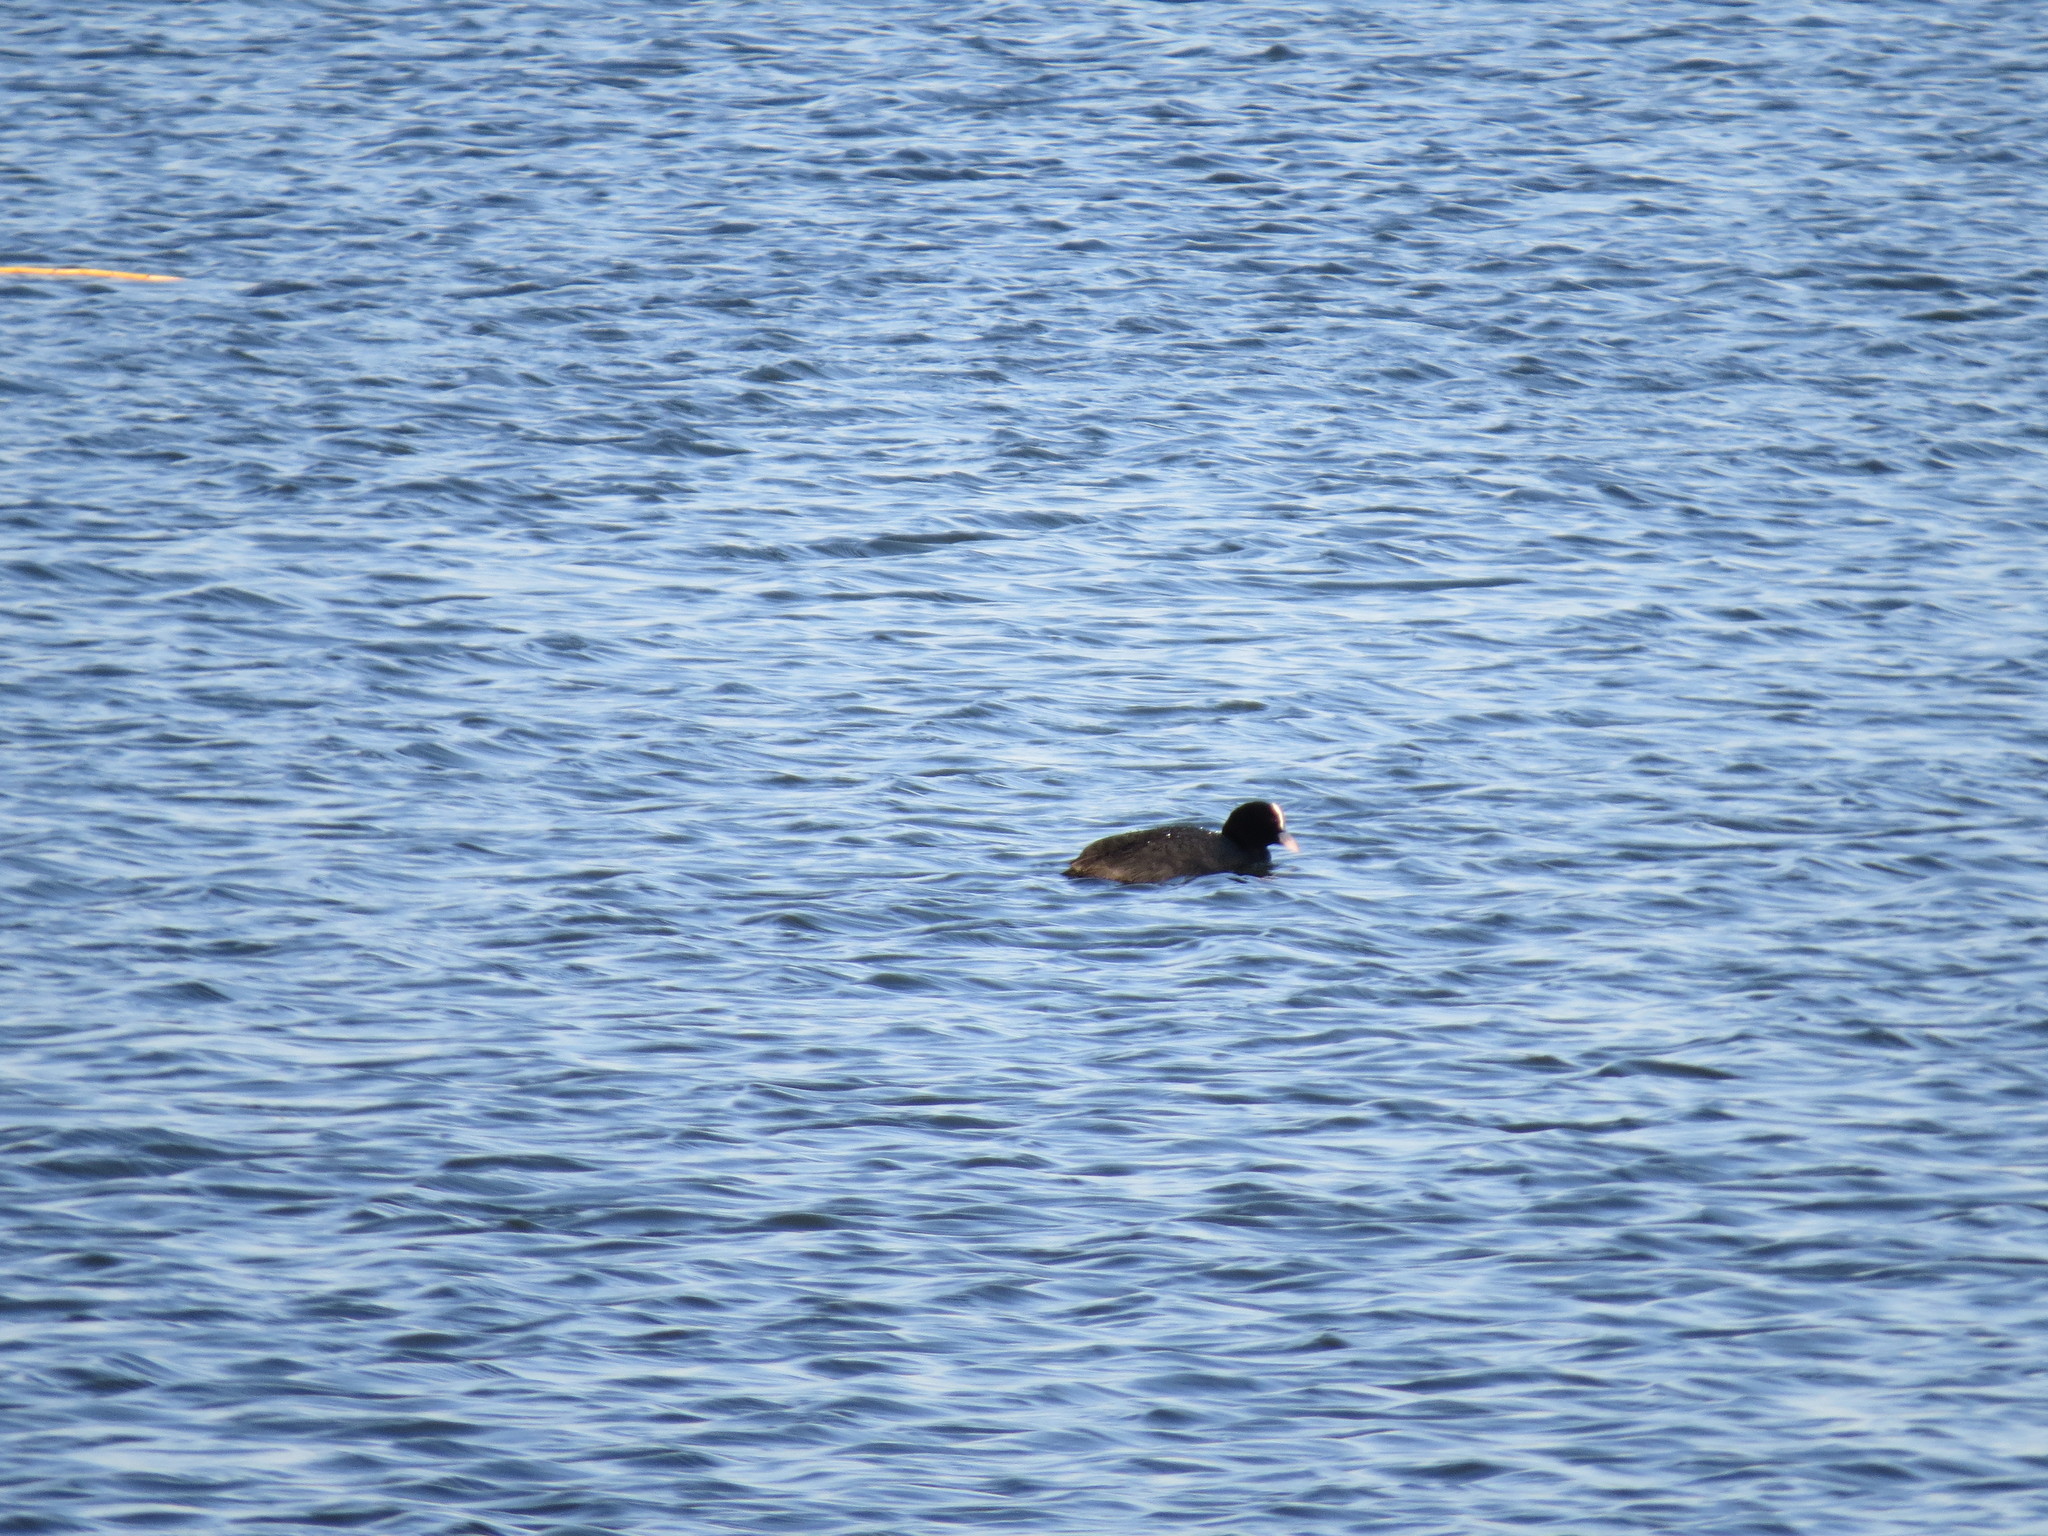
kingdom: Animalia
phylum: Chordata
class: Aves
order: Gruiformes
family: Rallidae
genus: Fulica
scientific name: Fulica atra
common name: Eurasian coot
